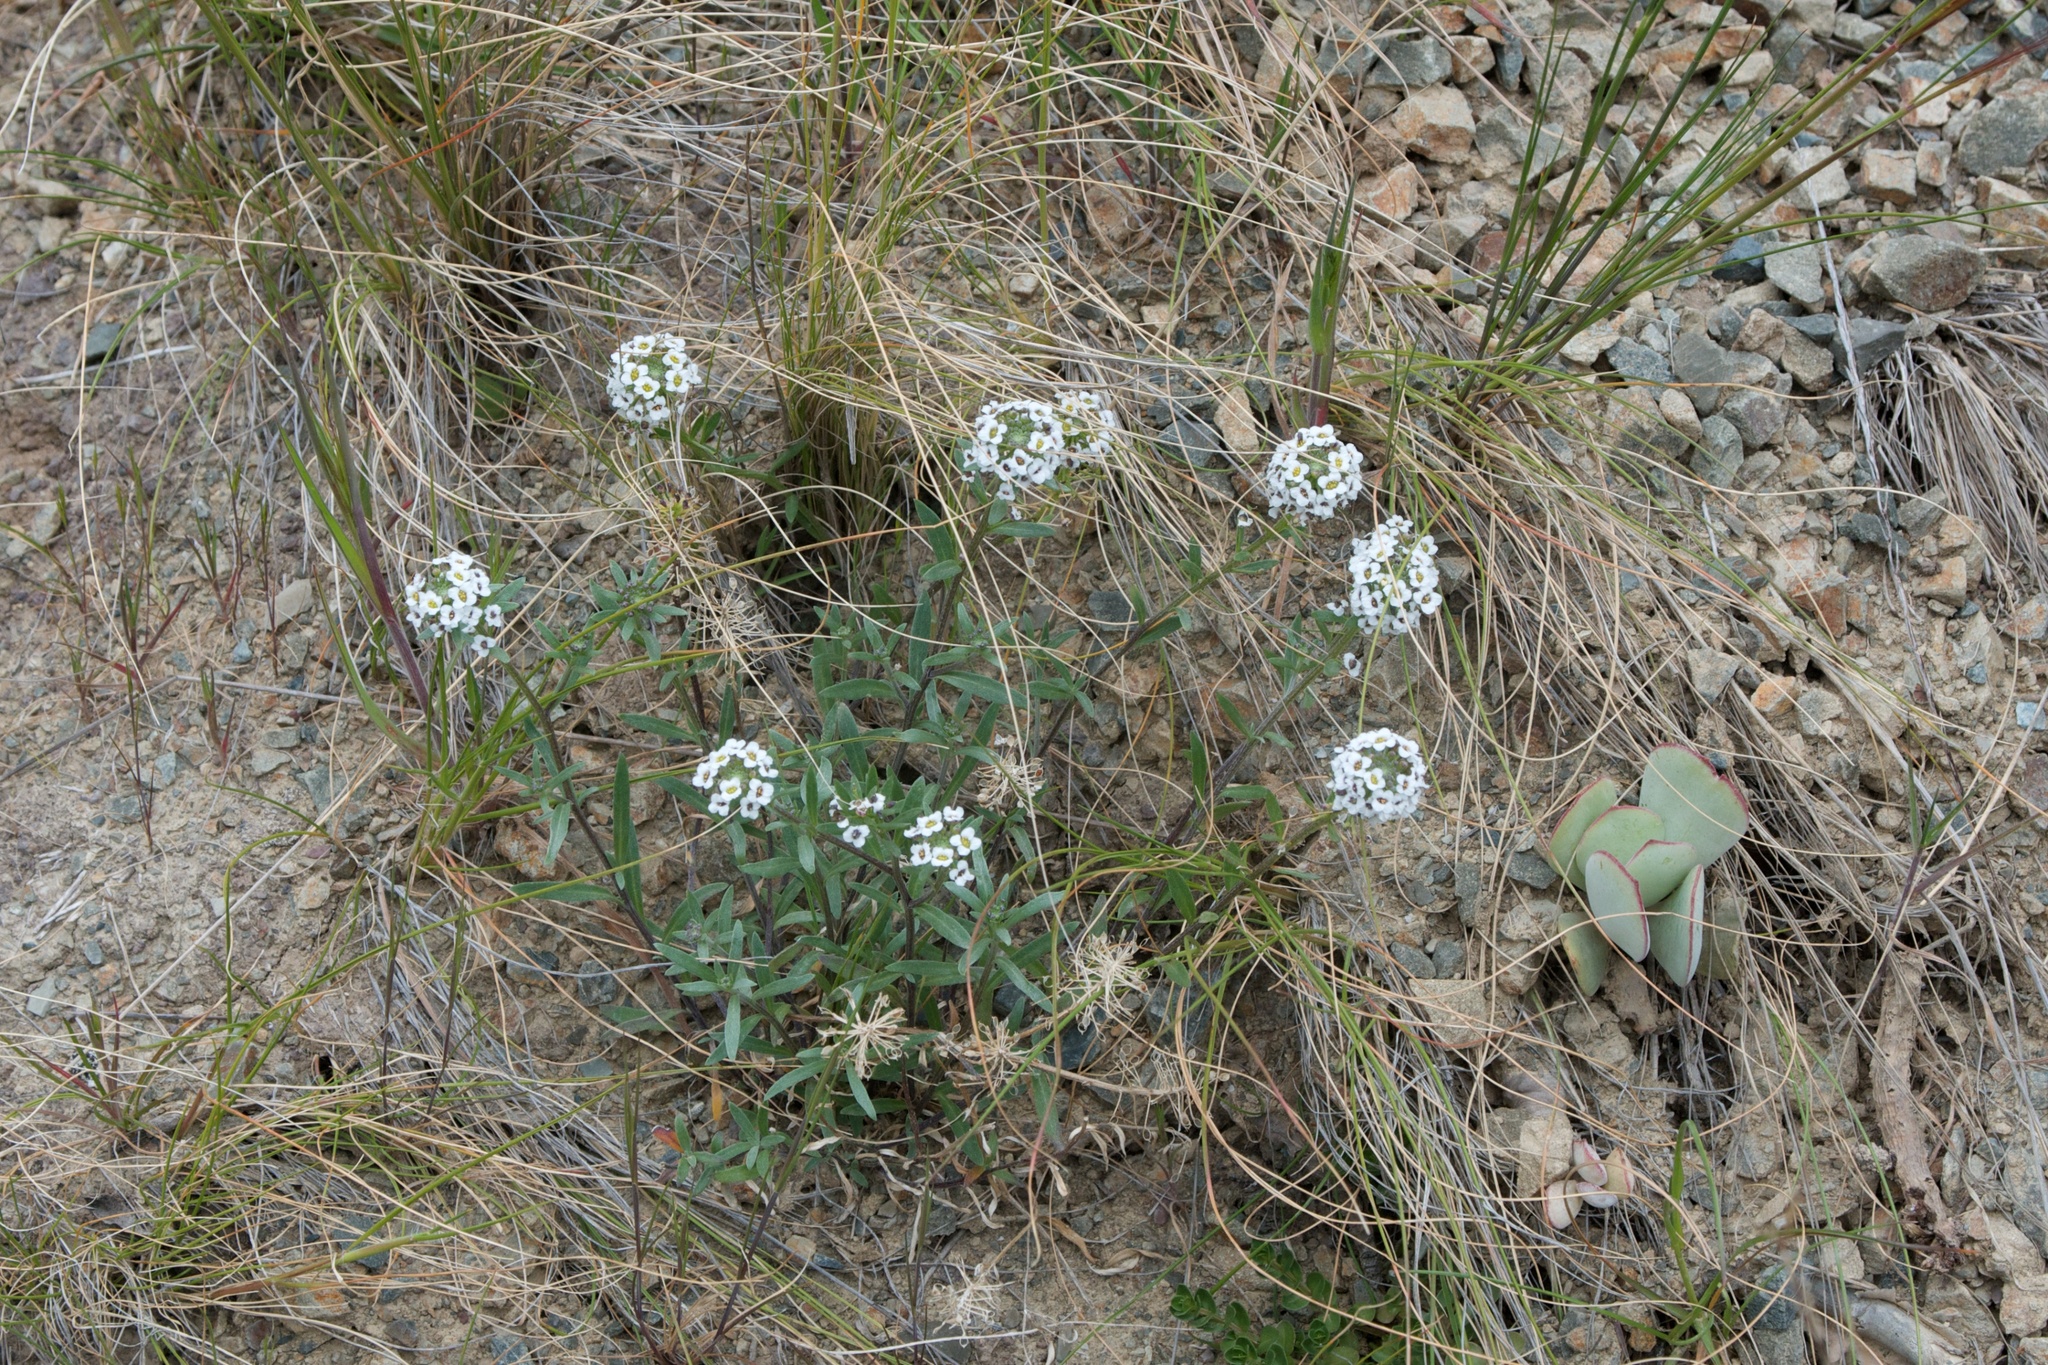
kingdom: Plantae
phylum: Tracheophyta
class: Magnoliopsida
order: Brassicales
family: Brassicaceae
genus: Lobularia
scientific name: Lobularia maritima
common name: Sweet alison
